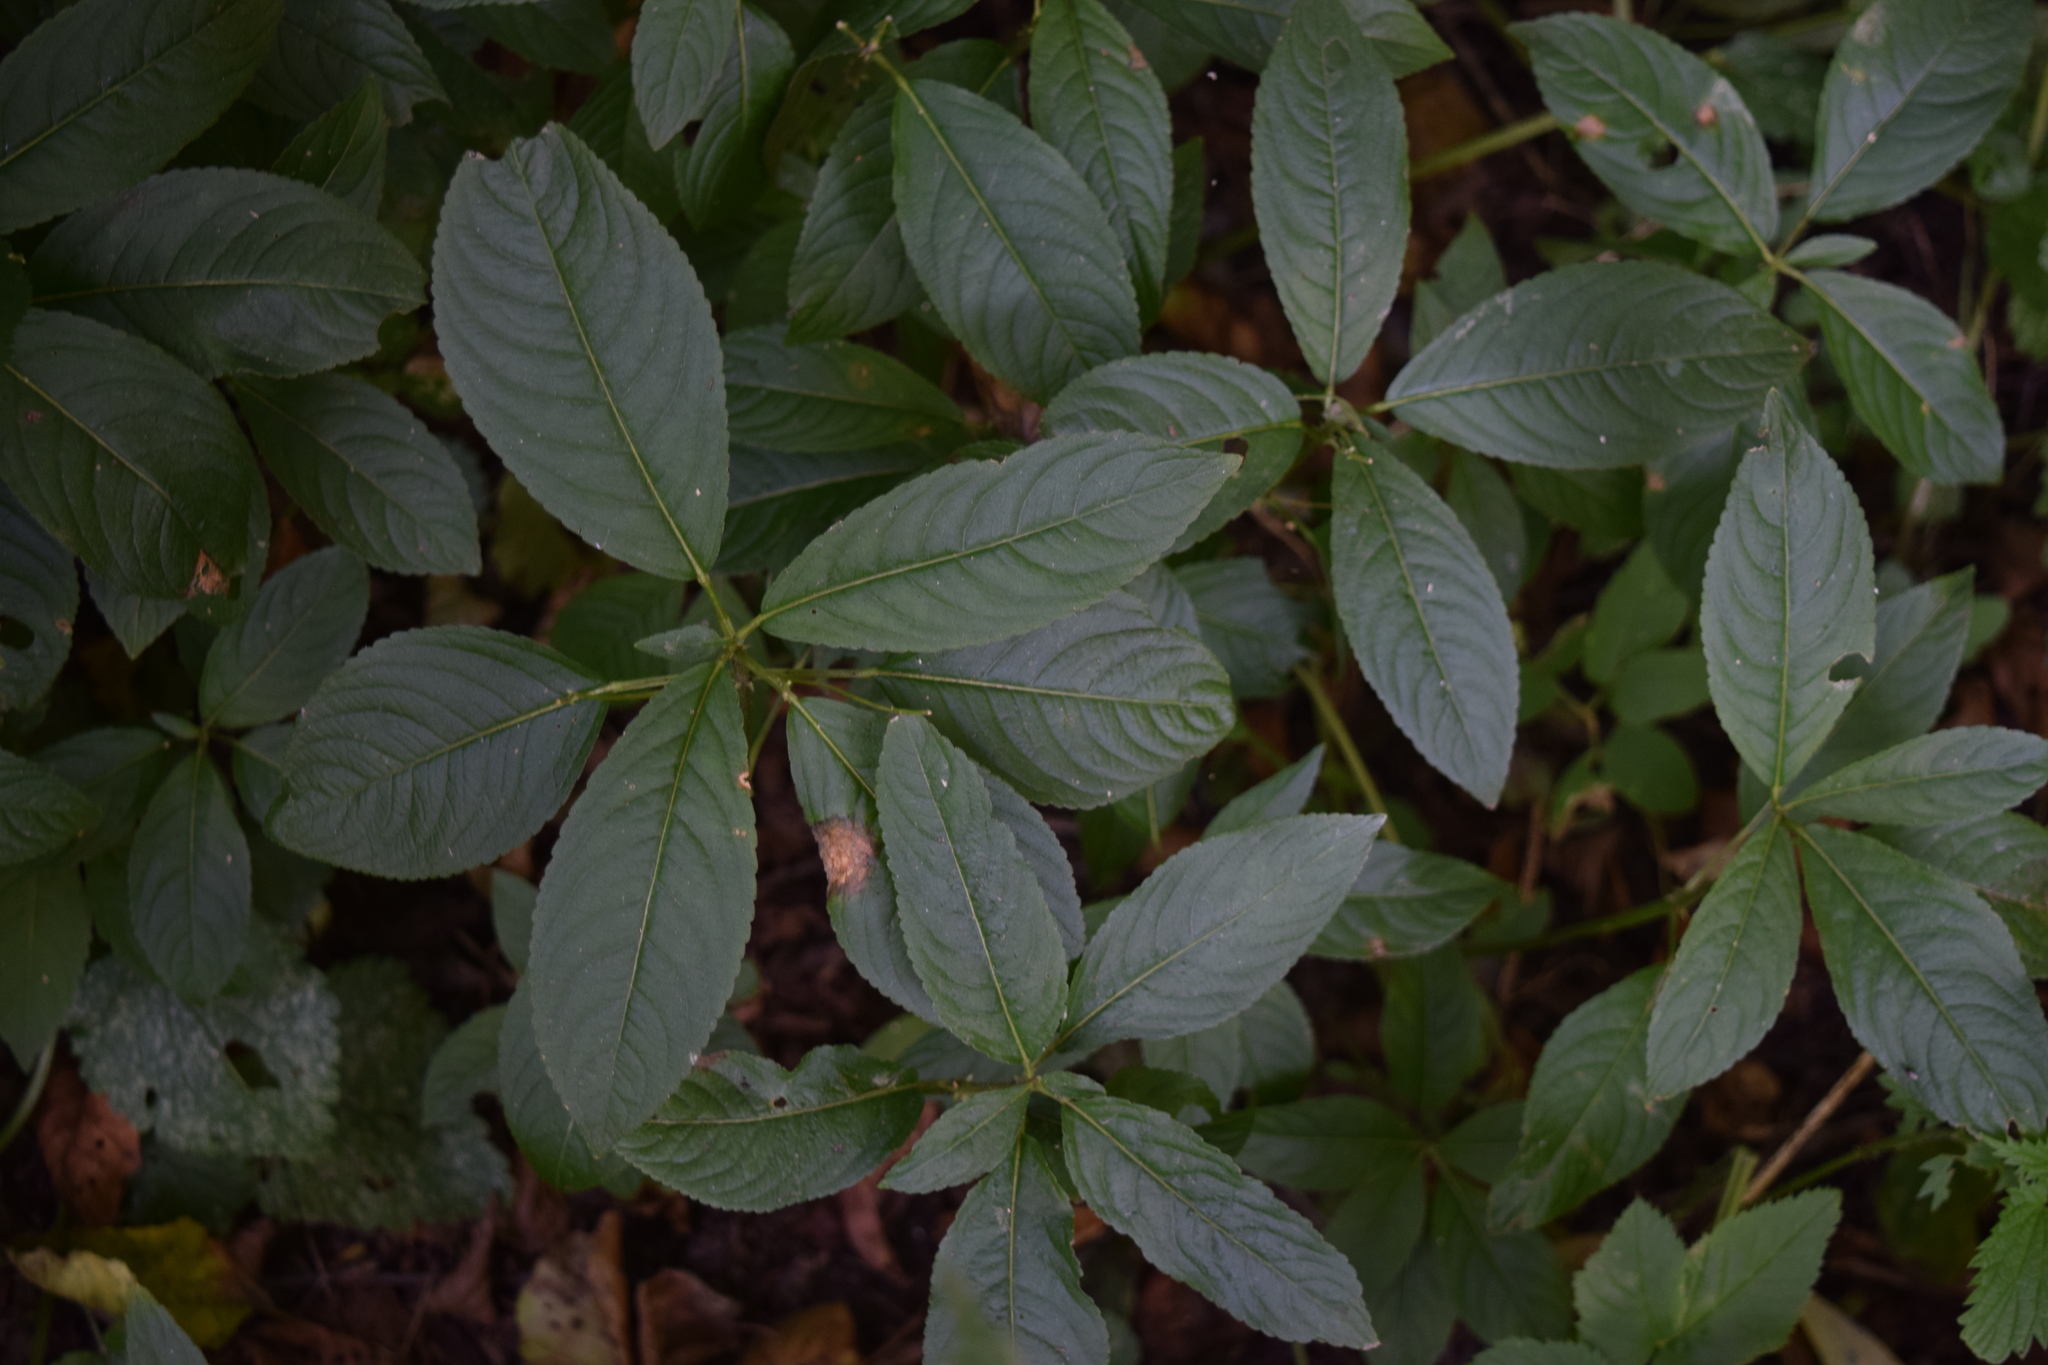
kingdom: Plantae
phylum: Tracheophyta
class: Magnoliopsida
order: Malpighiales
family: Euphorbiaceae
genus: Mercurialis
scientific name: Mercurialis perennis
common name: Dog mercury
